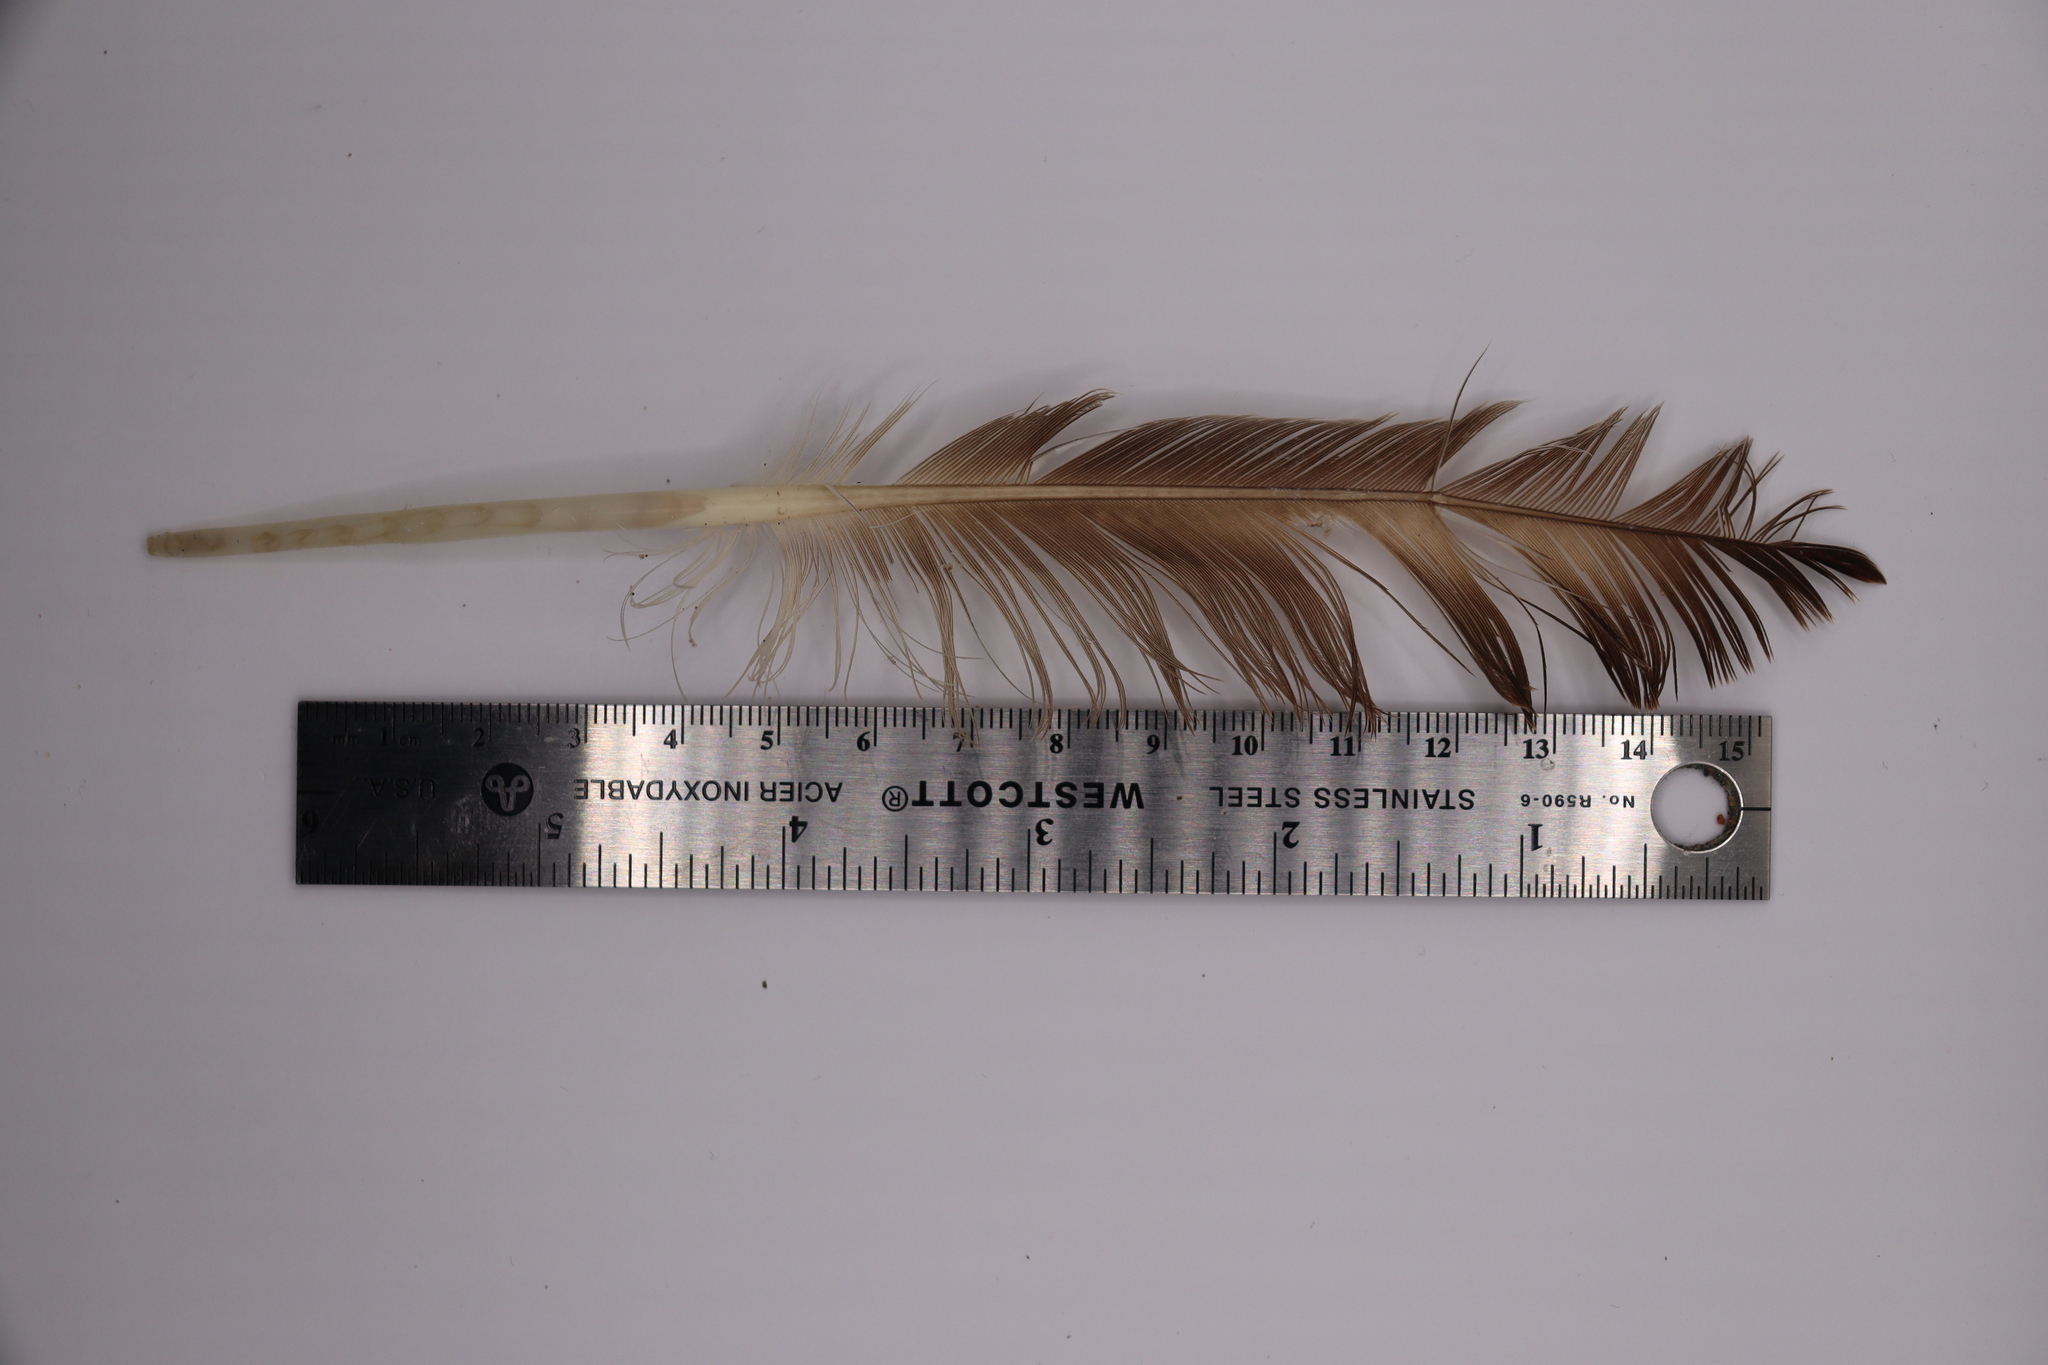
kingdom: Animalia
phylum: Chordata
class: Aves
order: Anseriformes
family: Anatidae
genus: Anas
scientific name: Anas platyrhynchos
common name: Mallard
